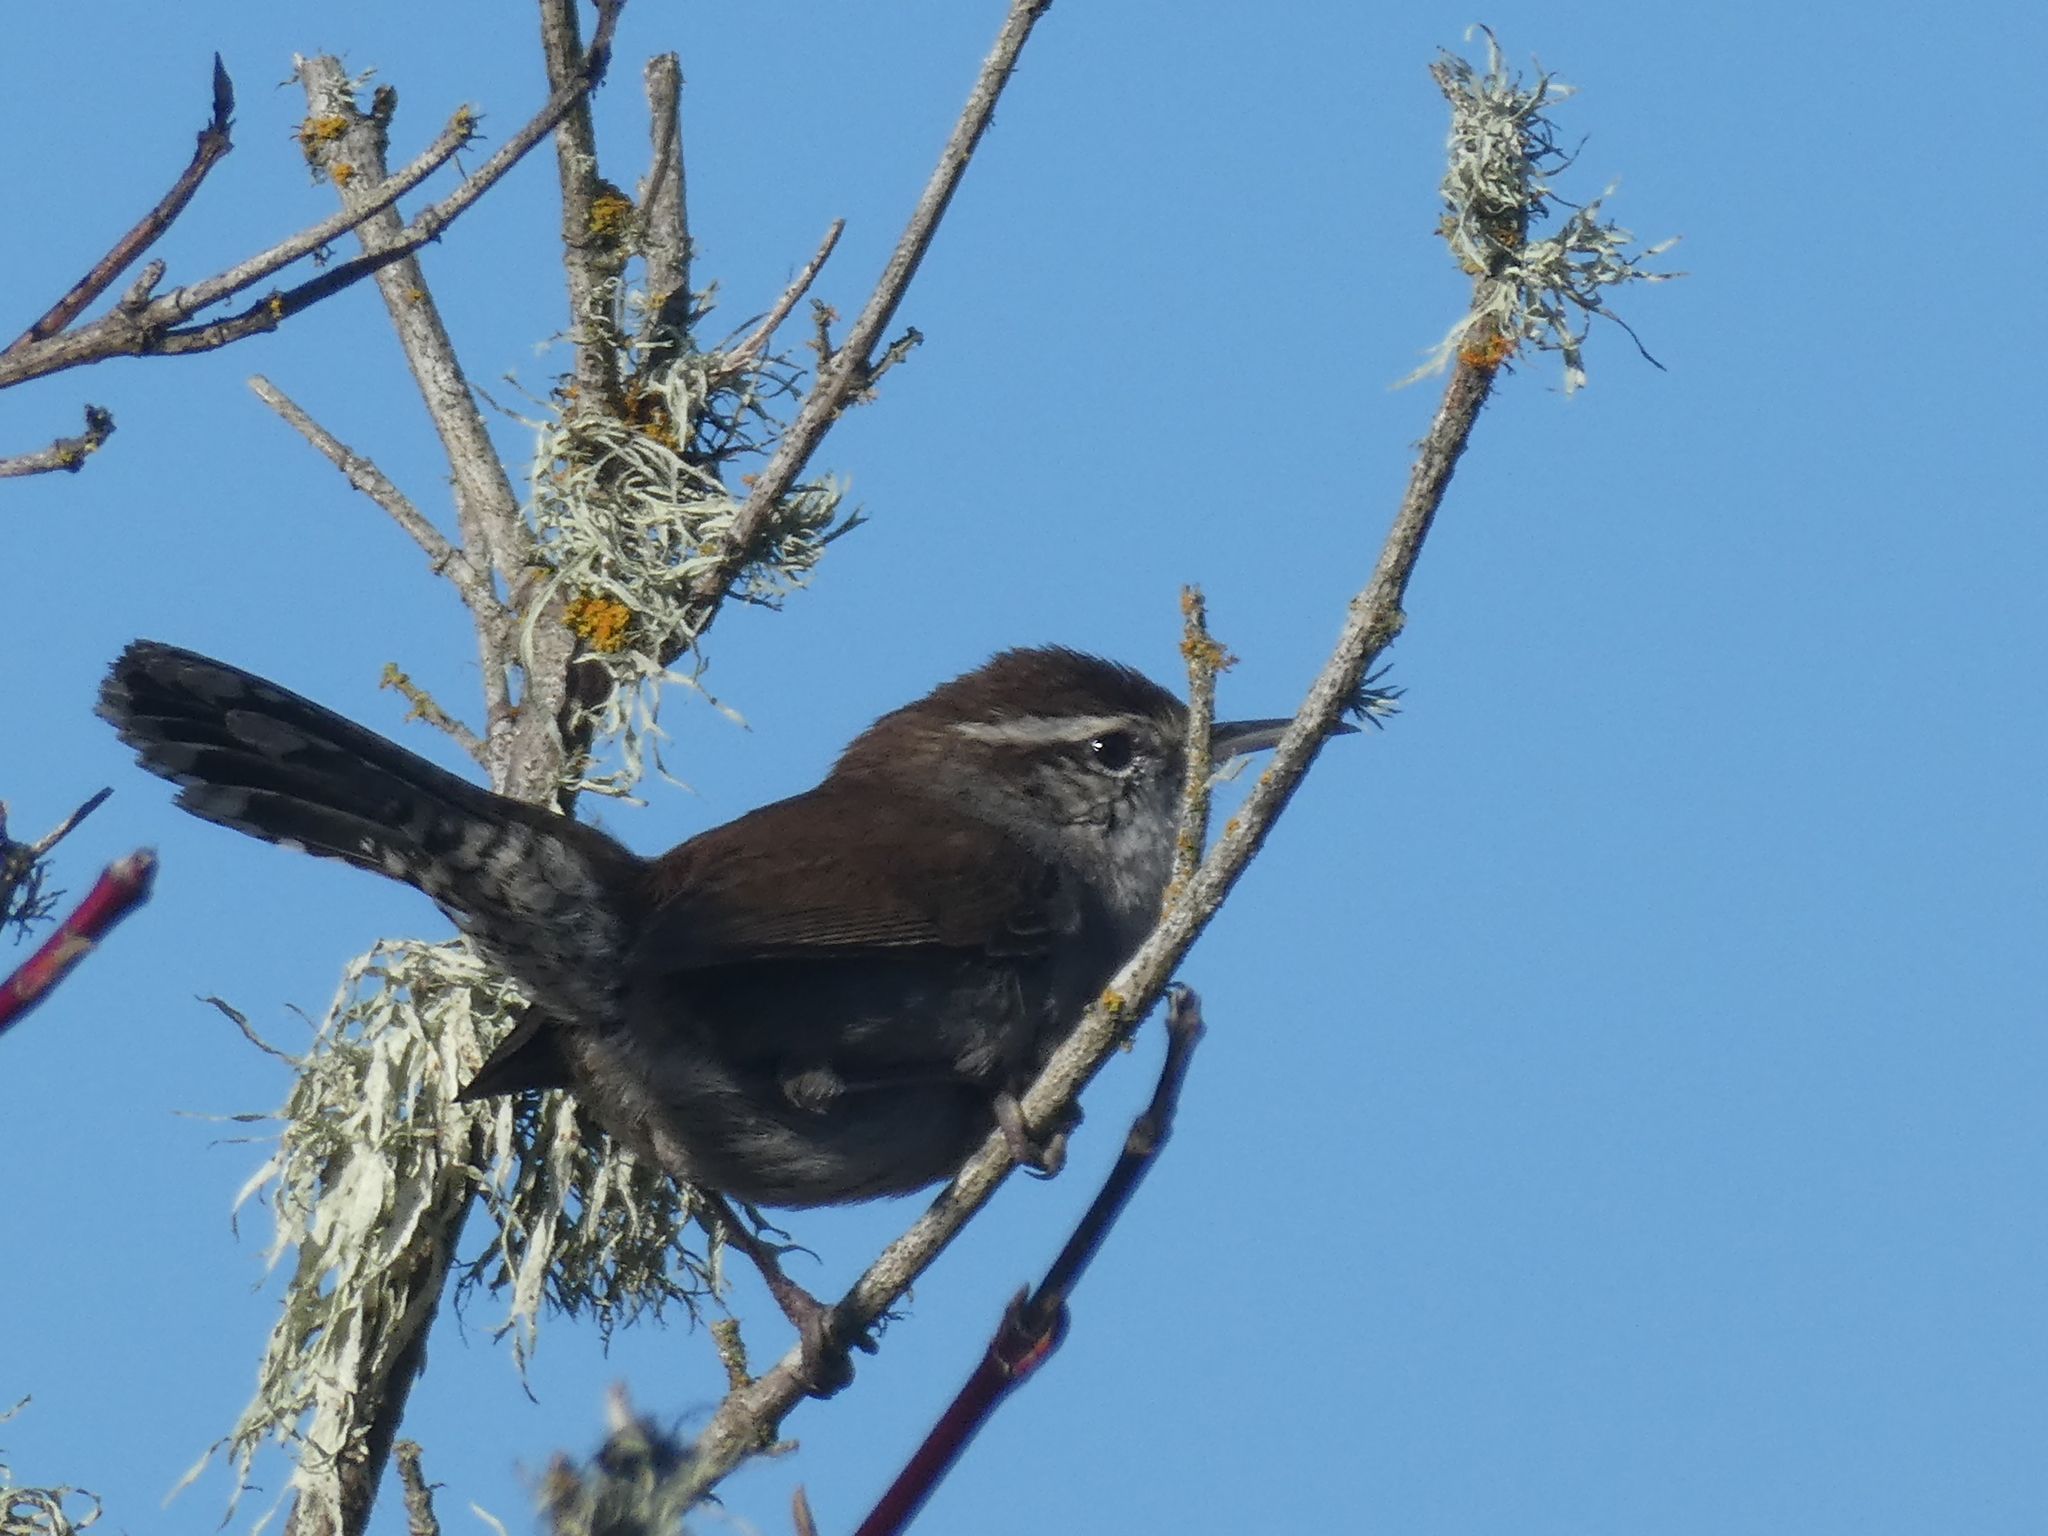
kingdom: Animalia
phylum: Chordata
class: Aves
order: Passeriformes
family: Troglodytidae
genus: Thryomanes
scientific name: Thryomanes bewickii
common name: Bewick's wren
